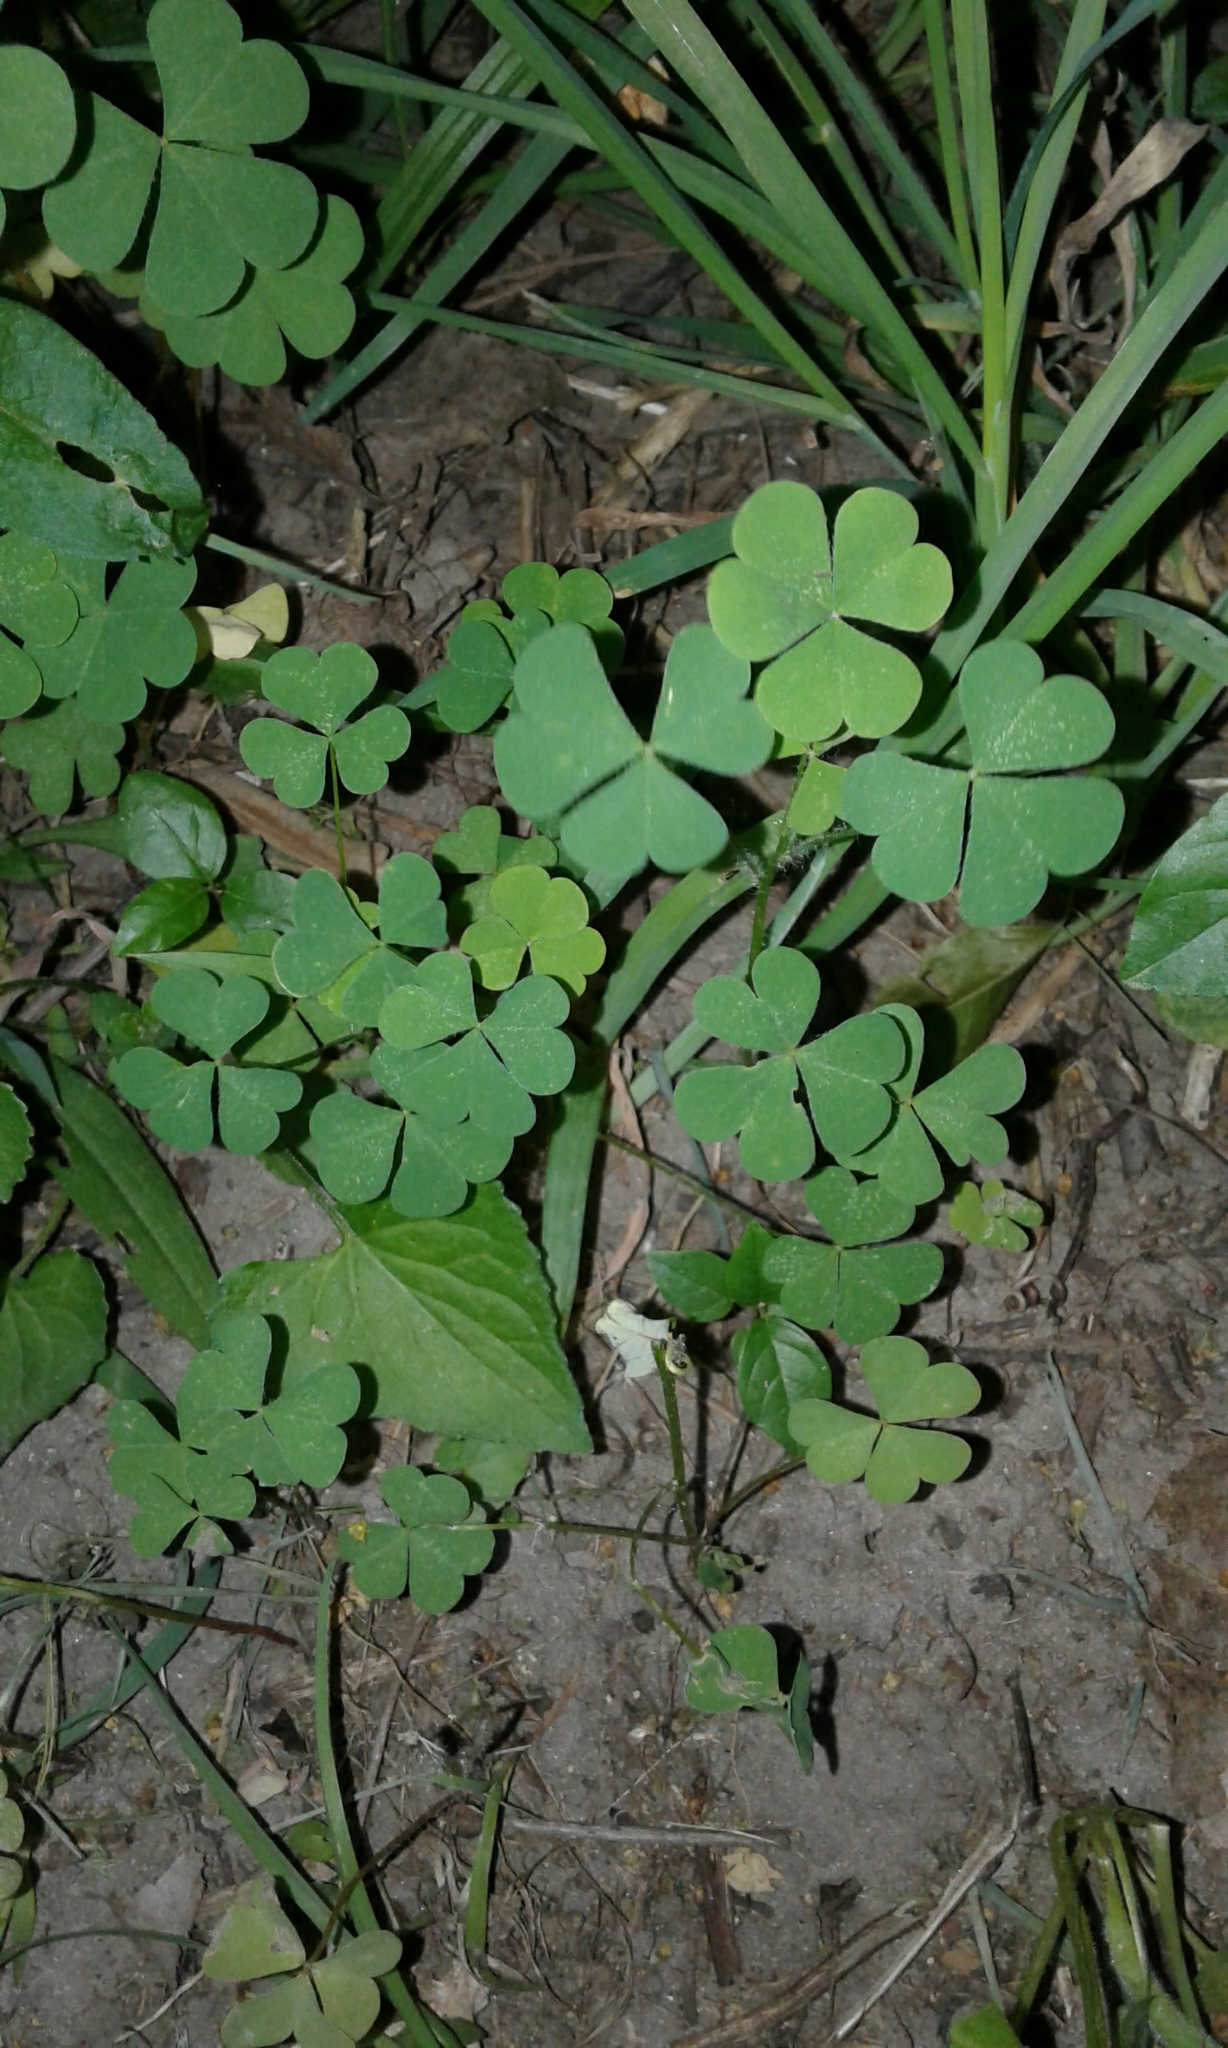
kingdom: Plantae
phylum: Tracheophyta
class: Magnoliopsida
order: Oxalidales
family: Oxalidaceae
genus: Oxalis
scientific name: Oxalis stricta
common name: Upright yellow-sorrel
